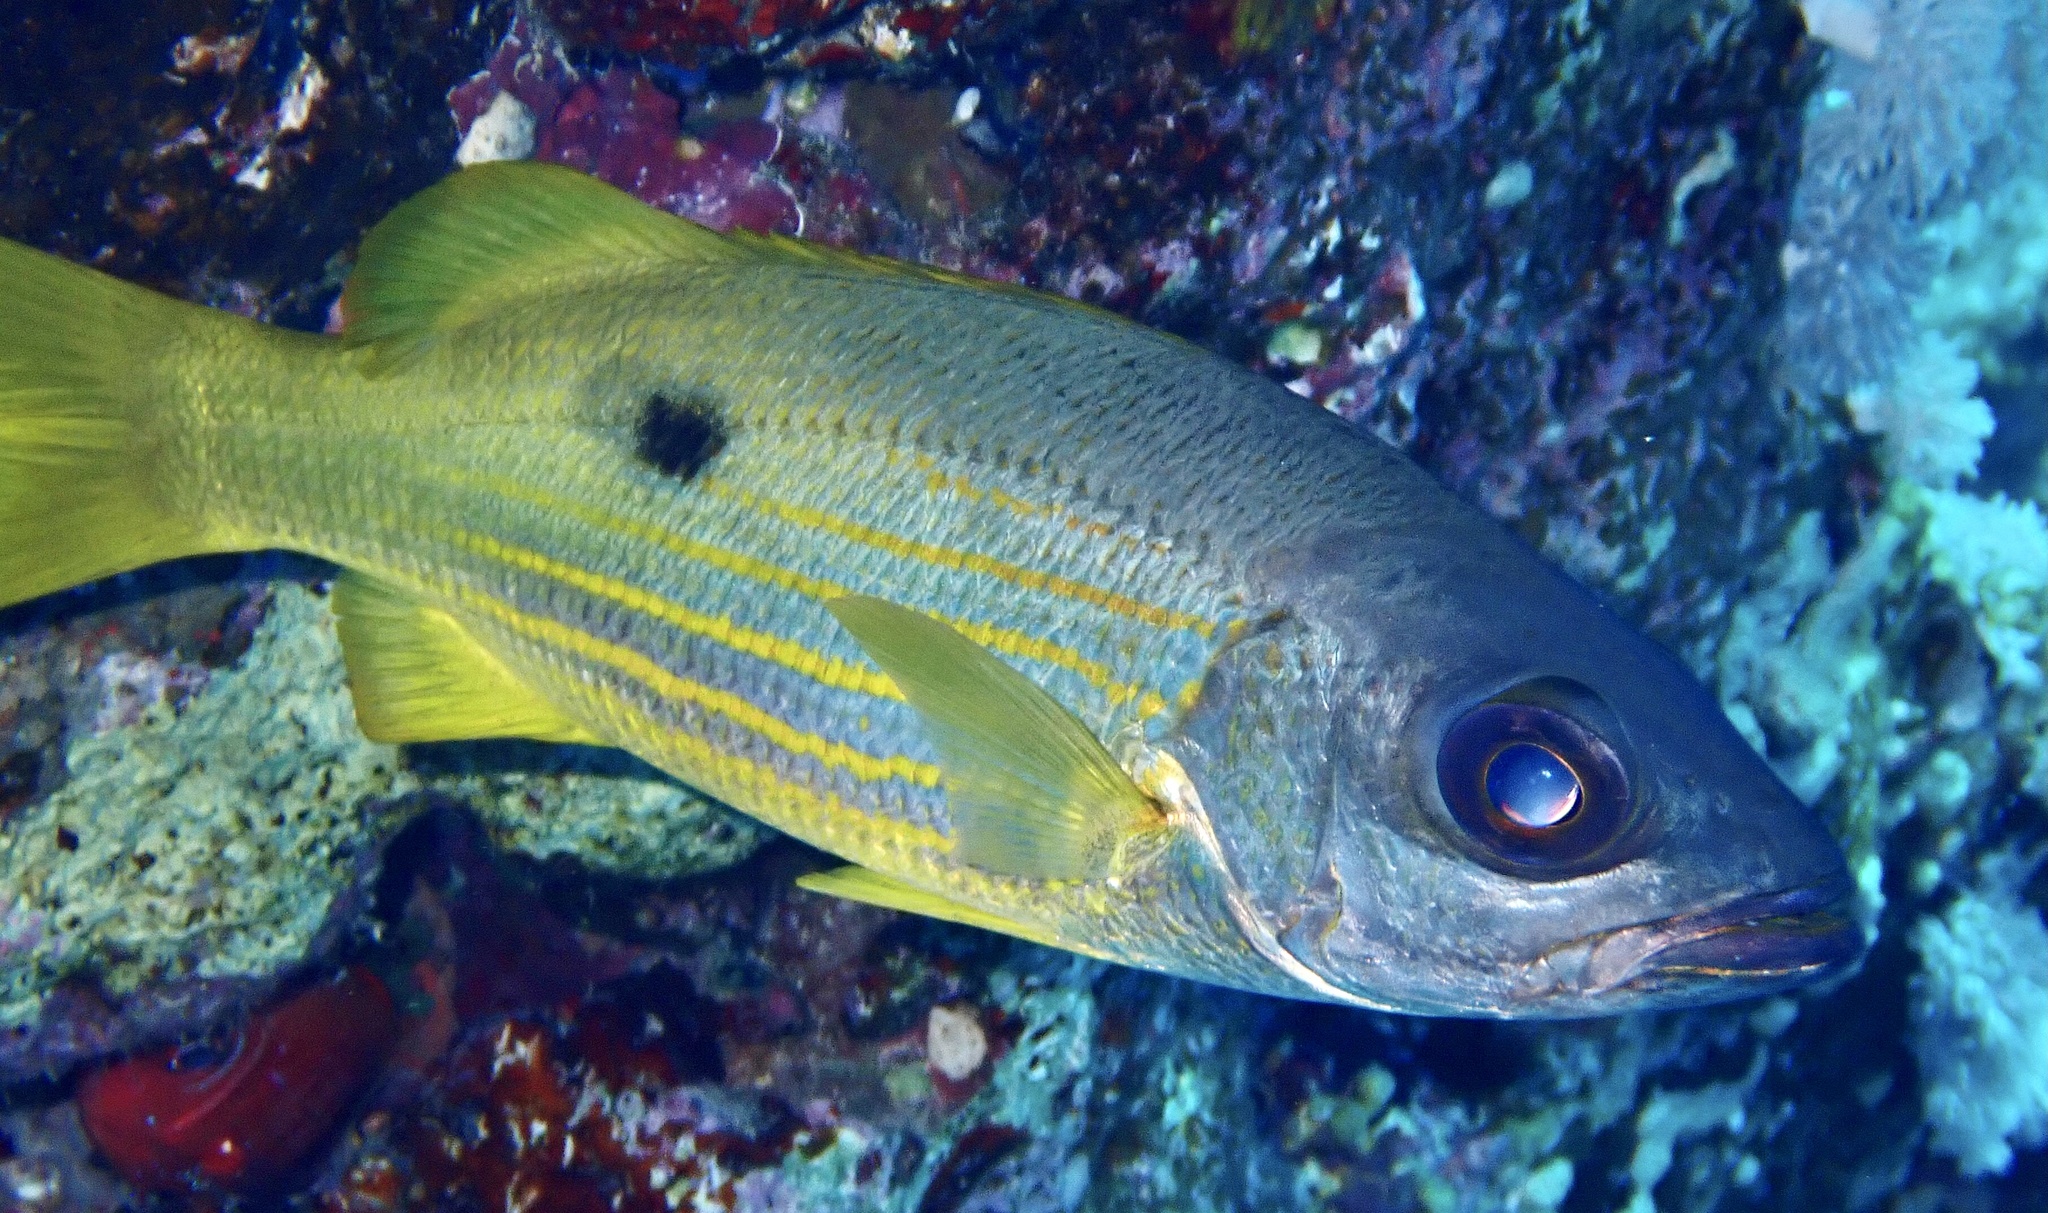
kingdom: Animalia
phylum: Chordata
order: Perciformes
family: Lutjanidae
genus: Lutjanus
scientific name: Lutjanus fulviflamma
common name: Blackspot snapper
